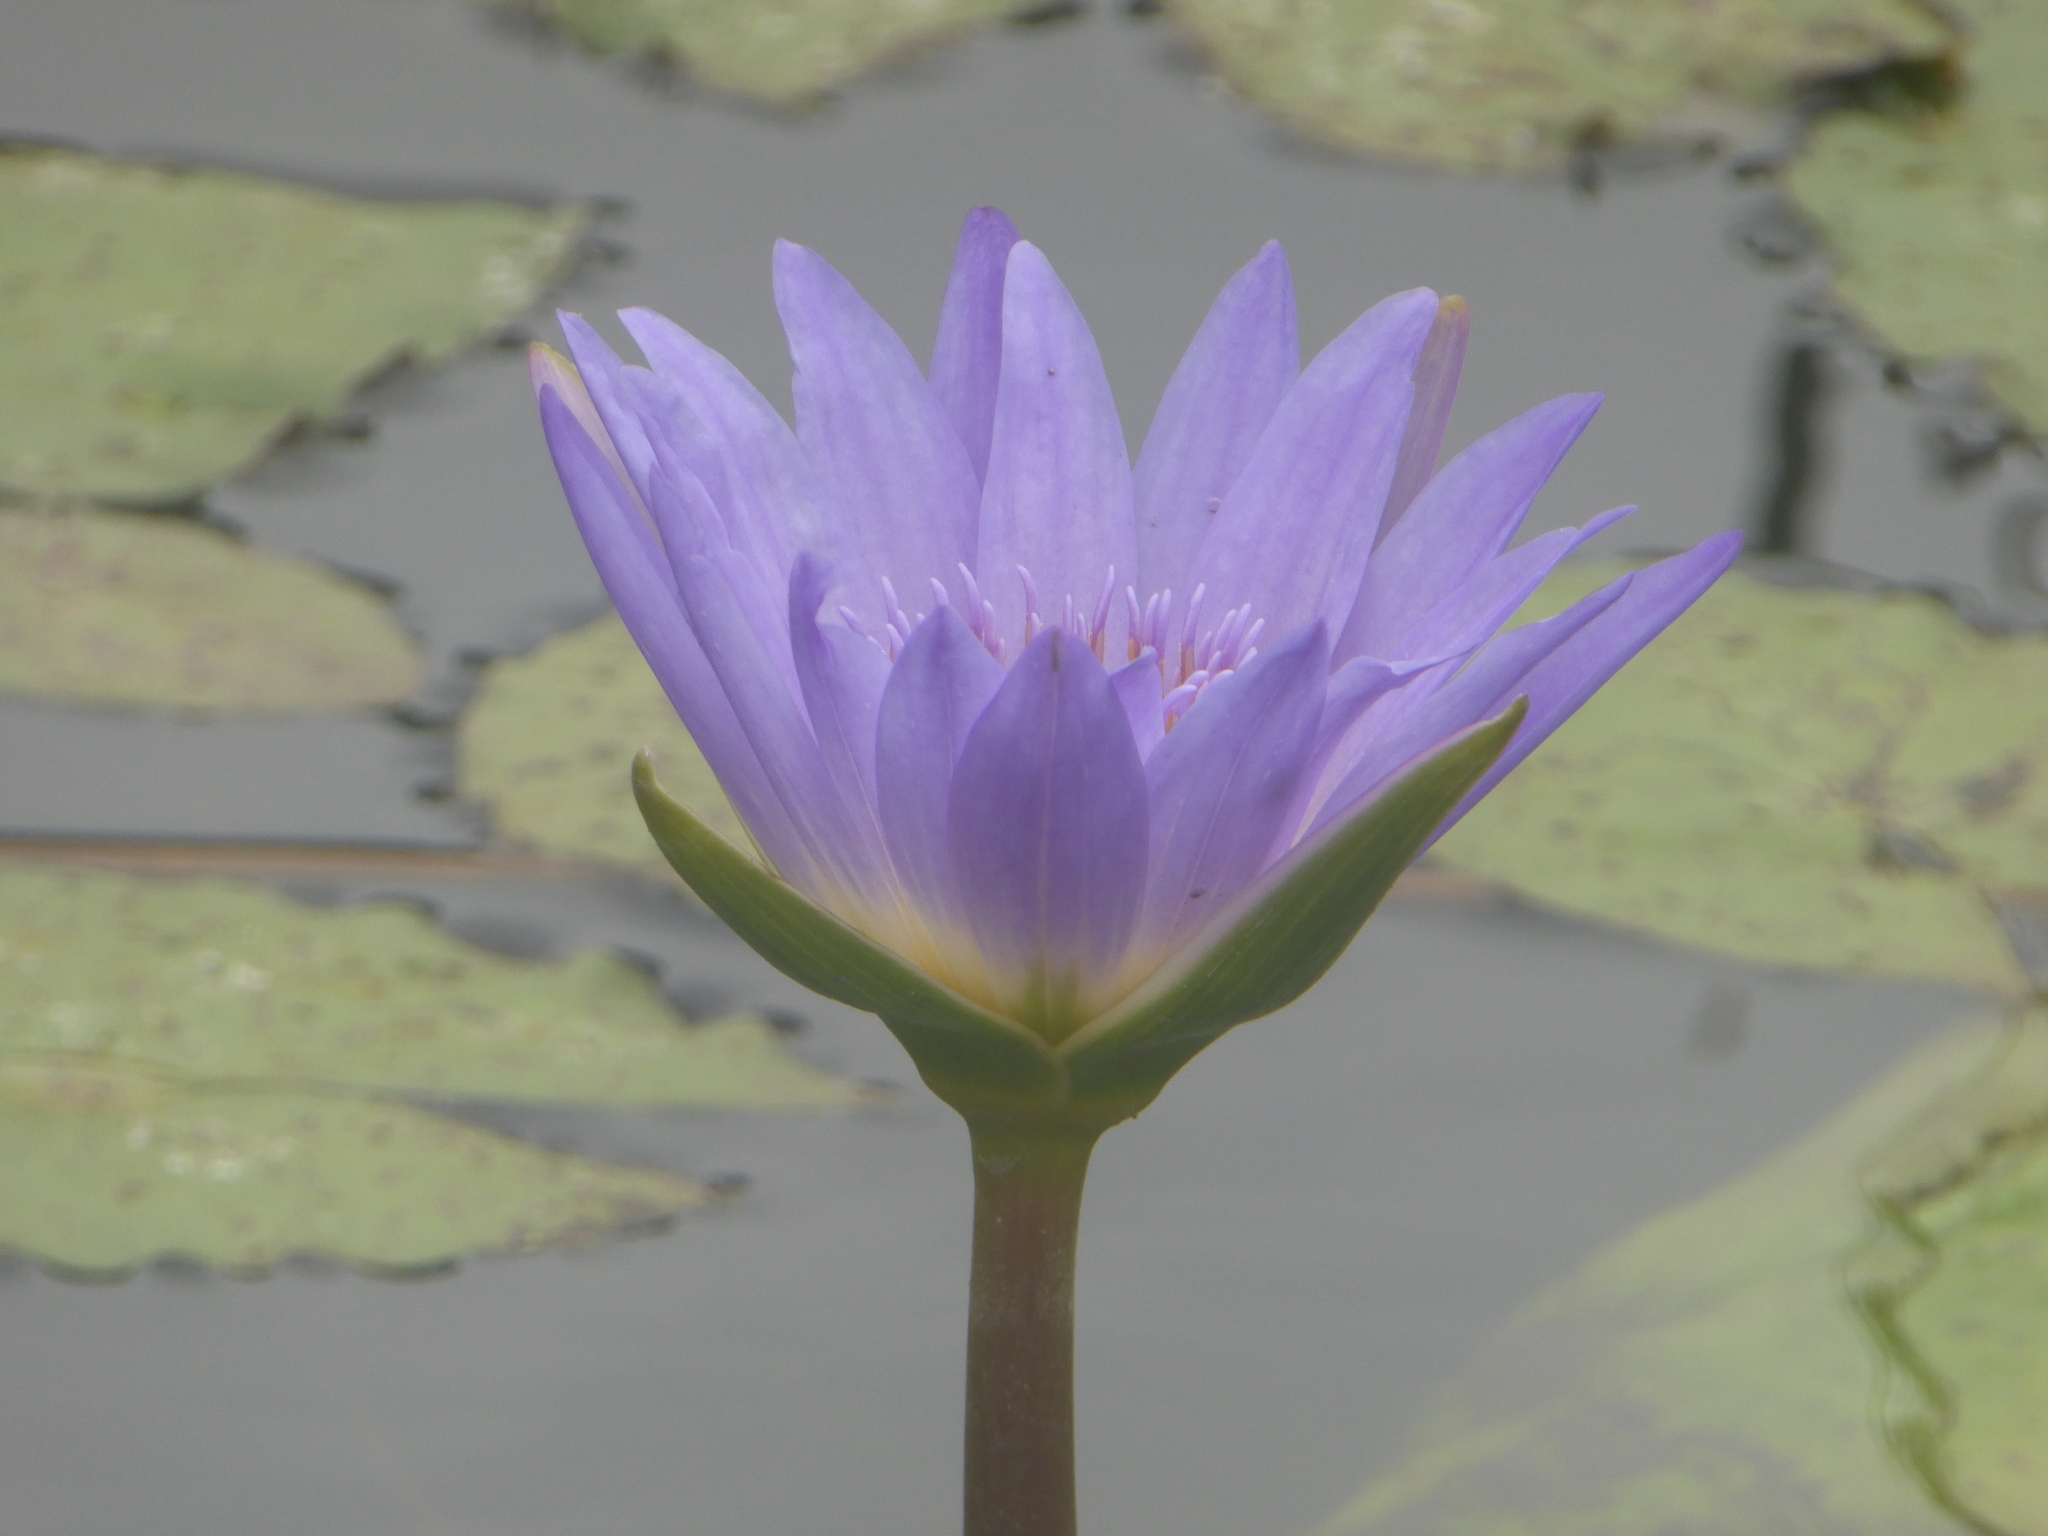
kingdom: Plantae
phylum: Tracheophyta
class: Magnoliopsida
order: Nymphaeales
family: Nymphaeaceae
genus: Nymphaea
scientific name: Nymphaea nouchali
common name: Blue lotus
